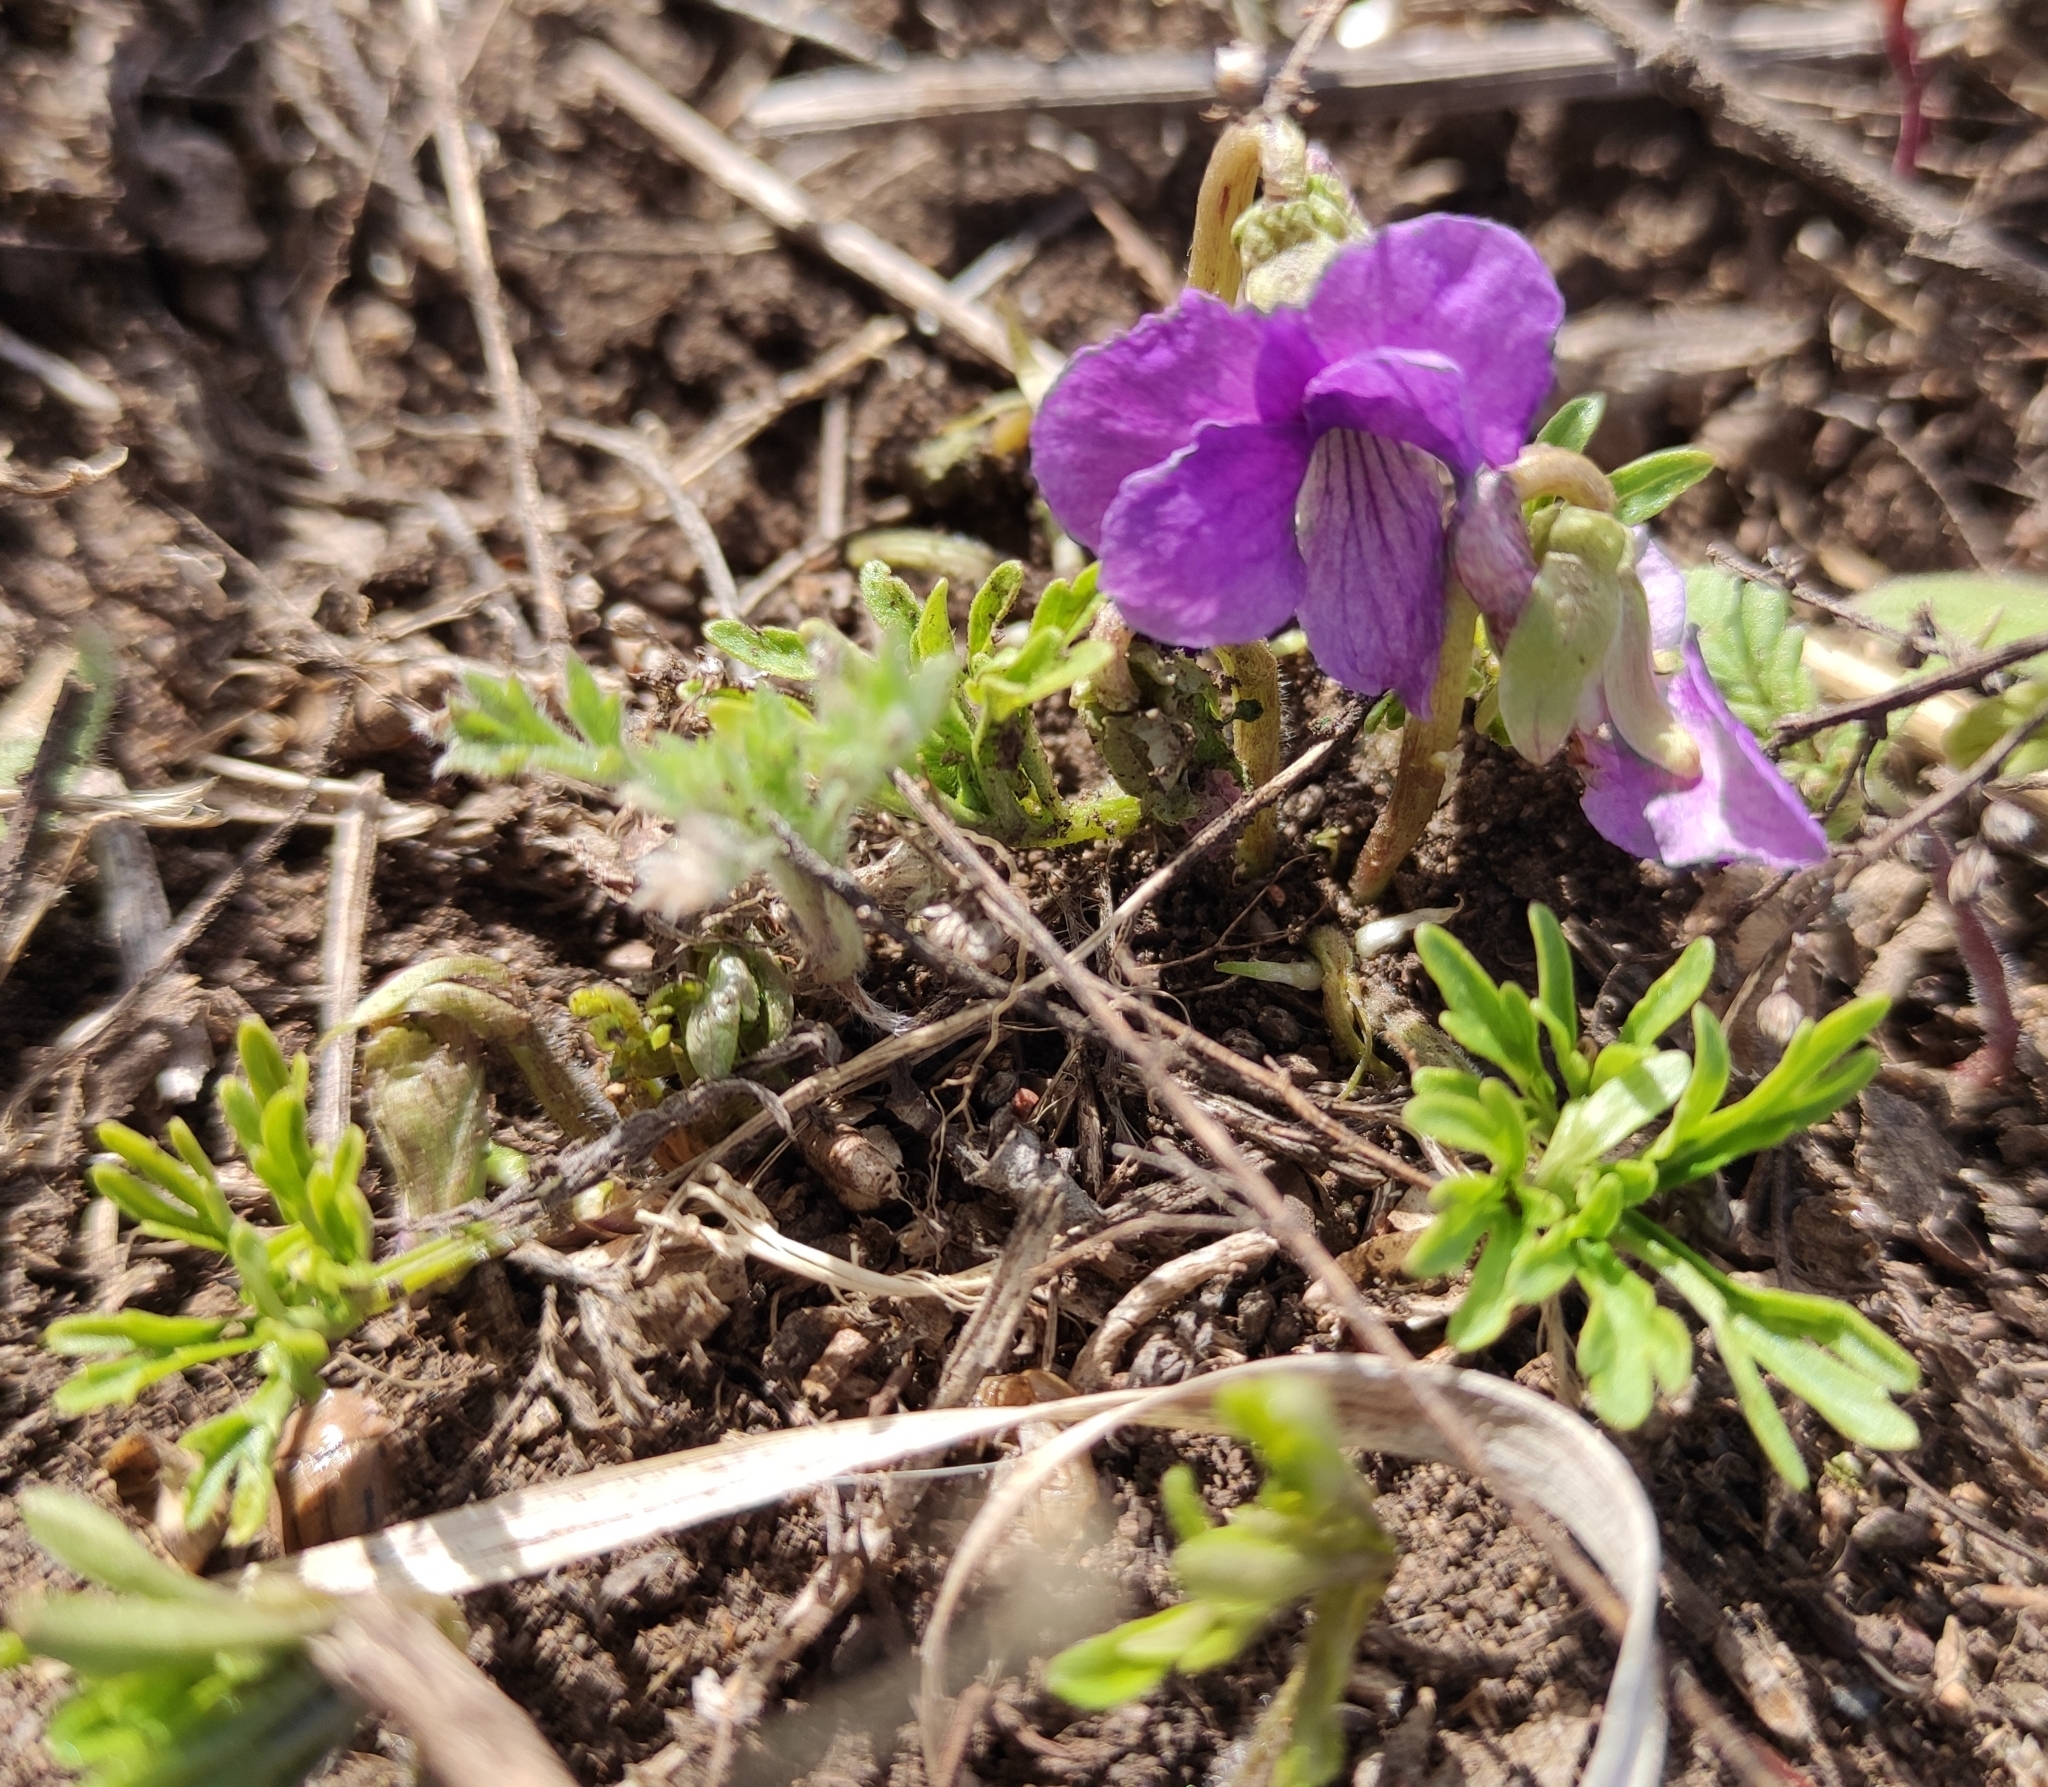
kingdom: Plantae
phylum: Tracheophyta
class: Magnoliopsida
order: Malpighiales
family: Violaceae
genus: Viola
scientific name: Viola multifida
